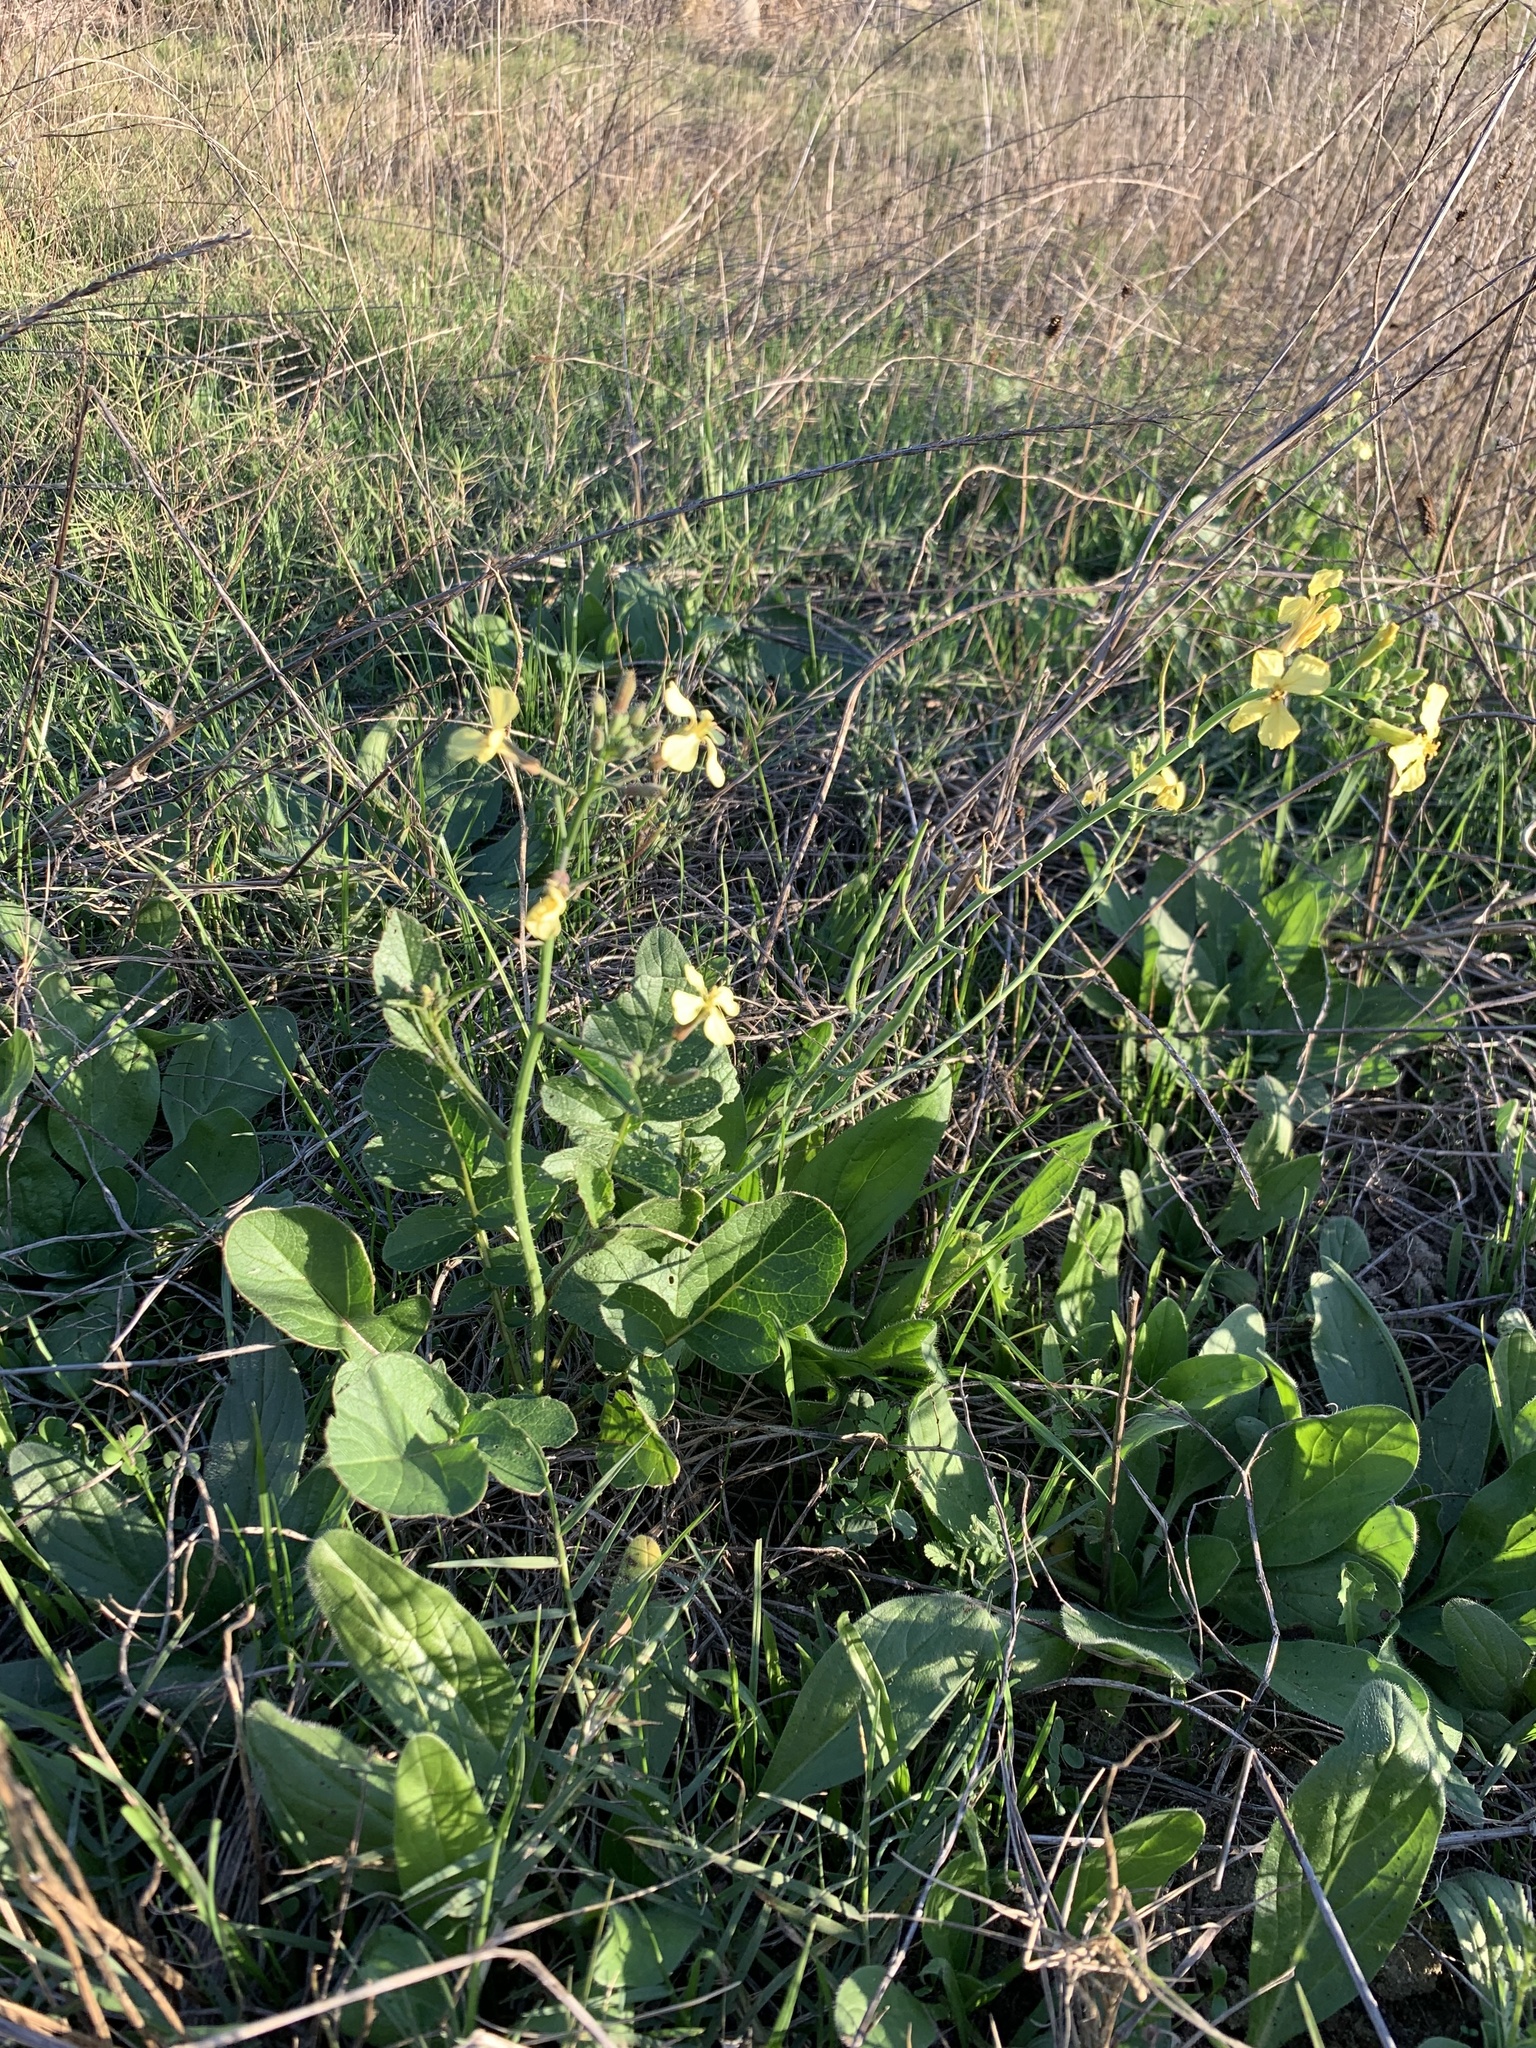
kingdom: Plantae
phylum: Tracheophyta
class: Magnoliopsida
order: Brassicales
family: Brassicaceae
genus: Raphanus
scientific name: Raphanus raphanistrum
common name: Wild radish
